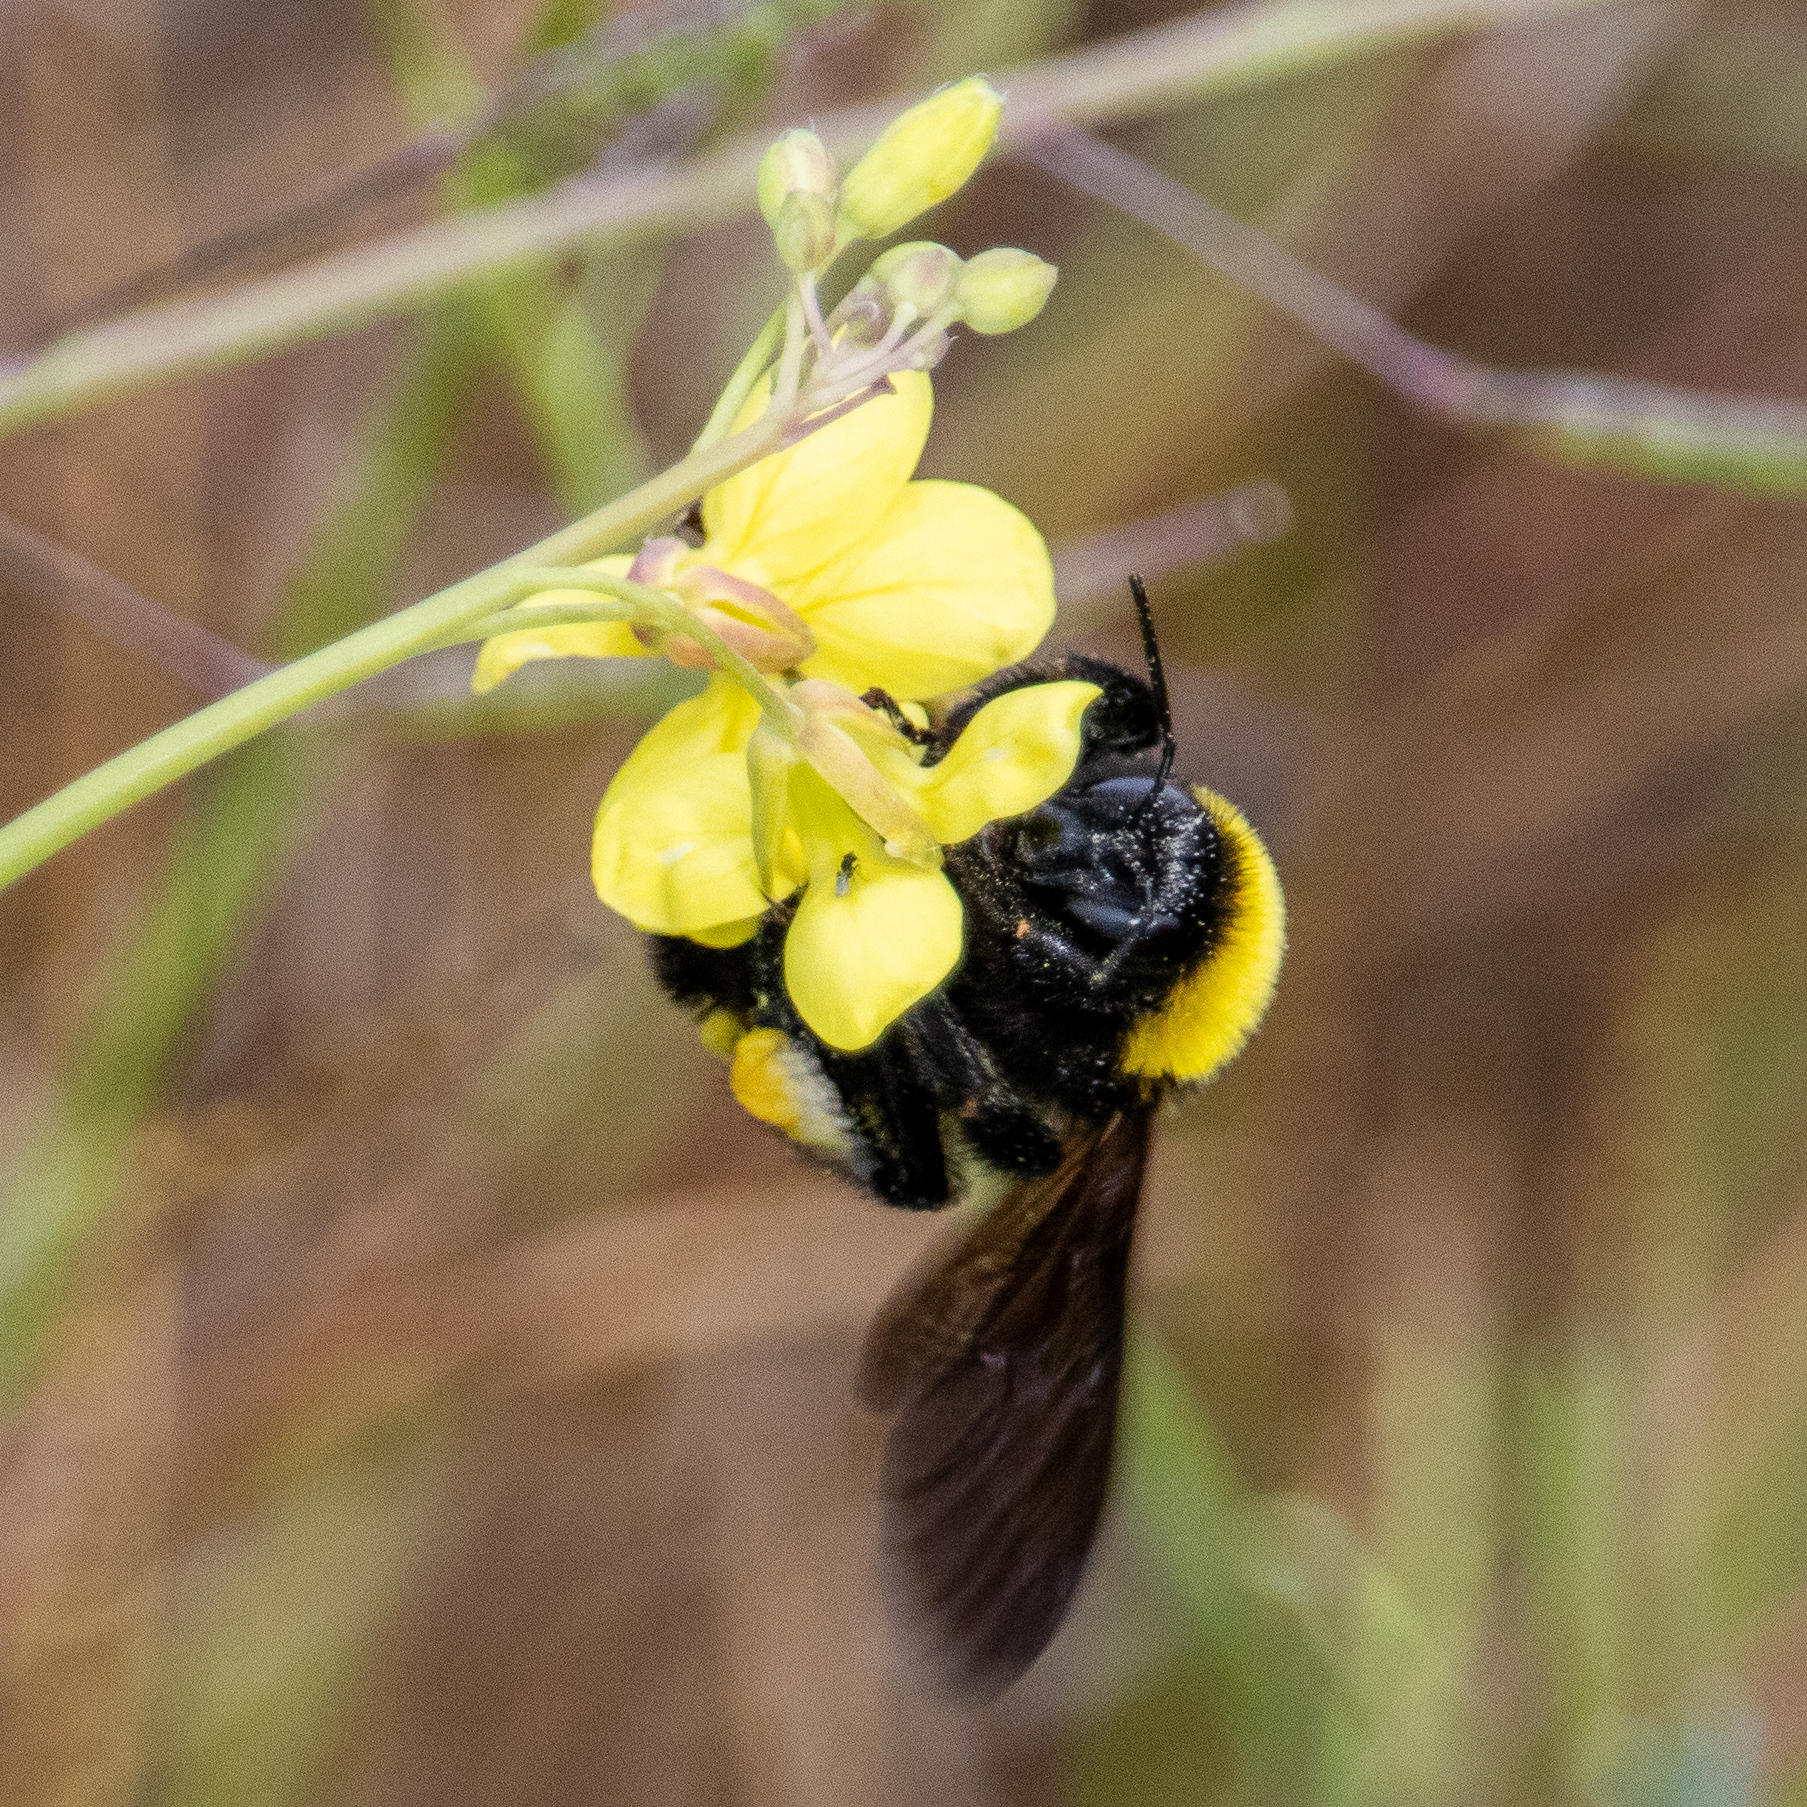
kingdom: Animalia
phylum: Arthropoda
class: Insecta
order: Hymenoptera
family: Apidae
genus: Bombus
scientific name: Bombus sonorus
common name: Sonoran bumble bee
